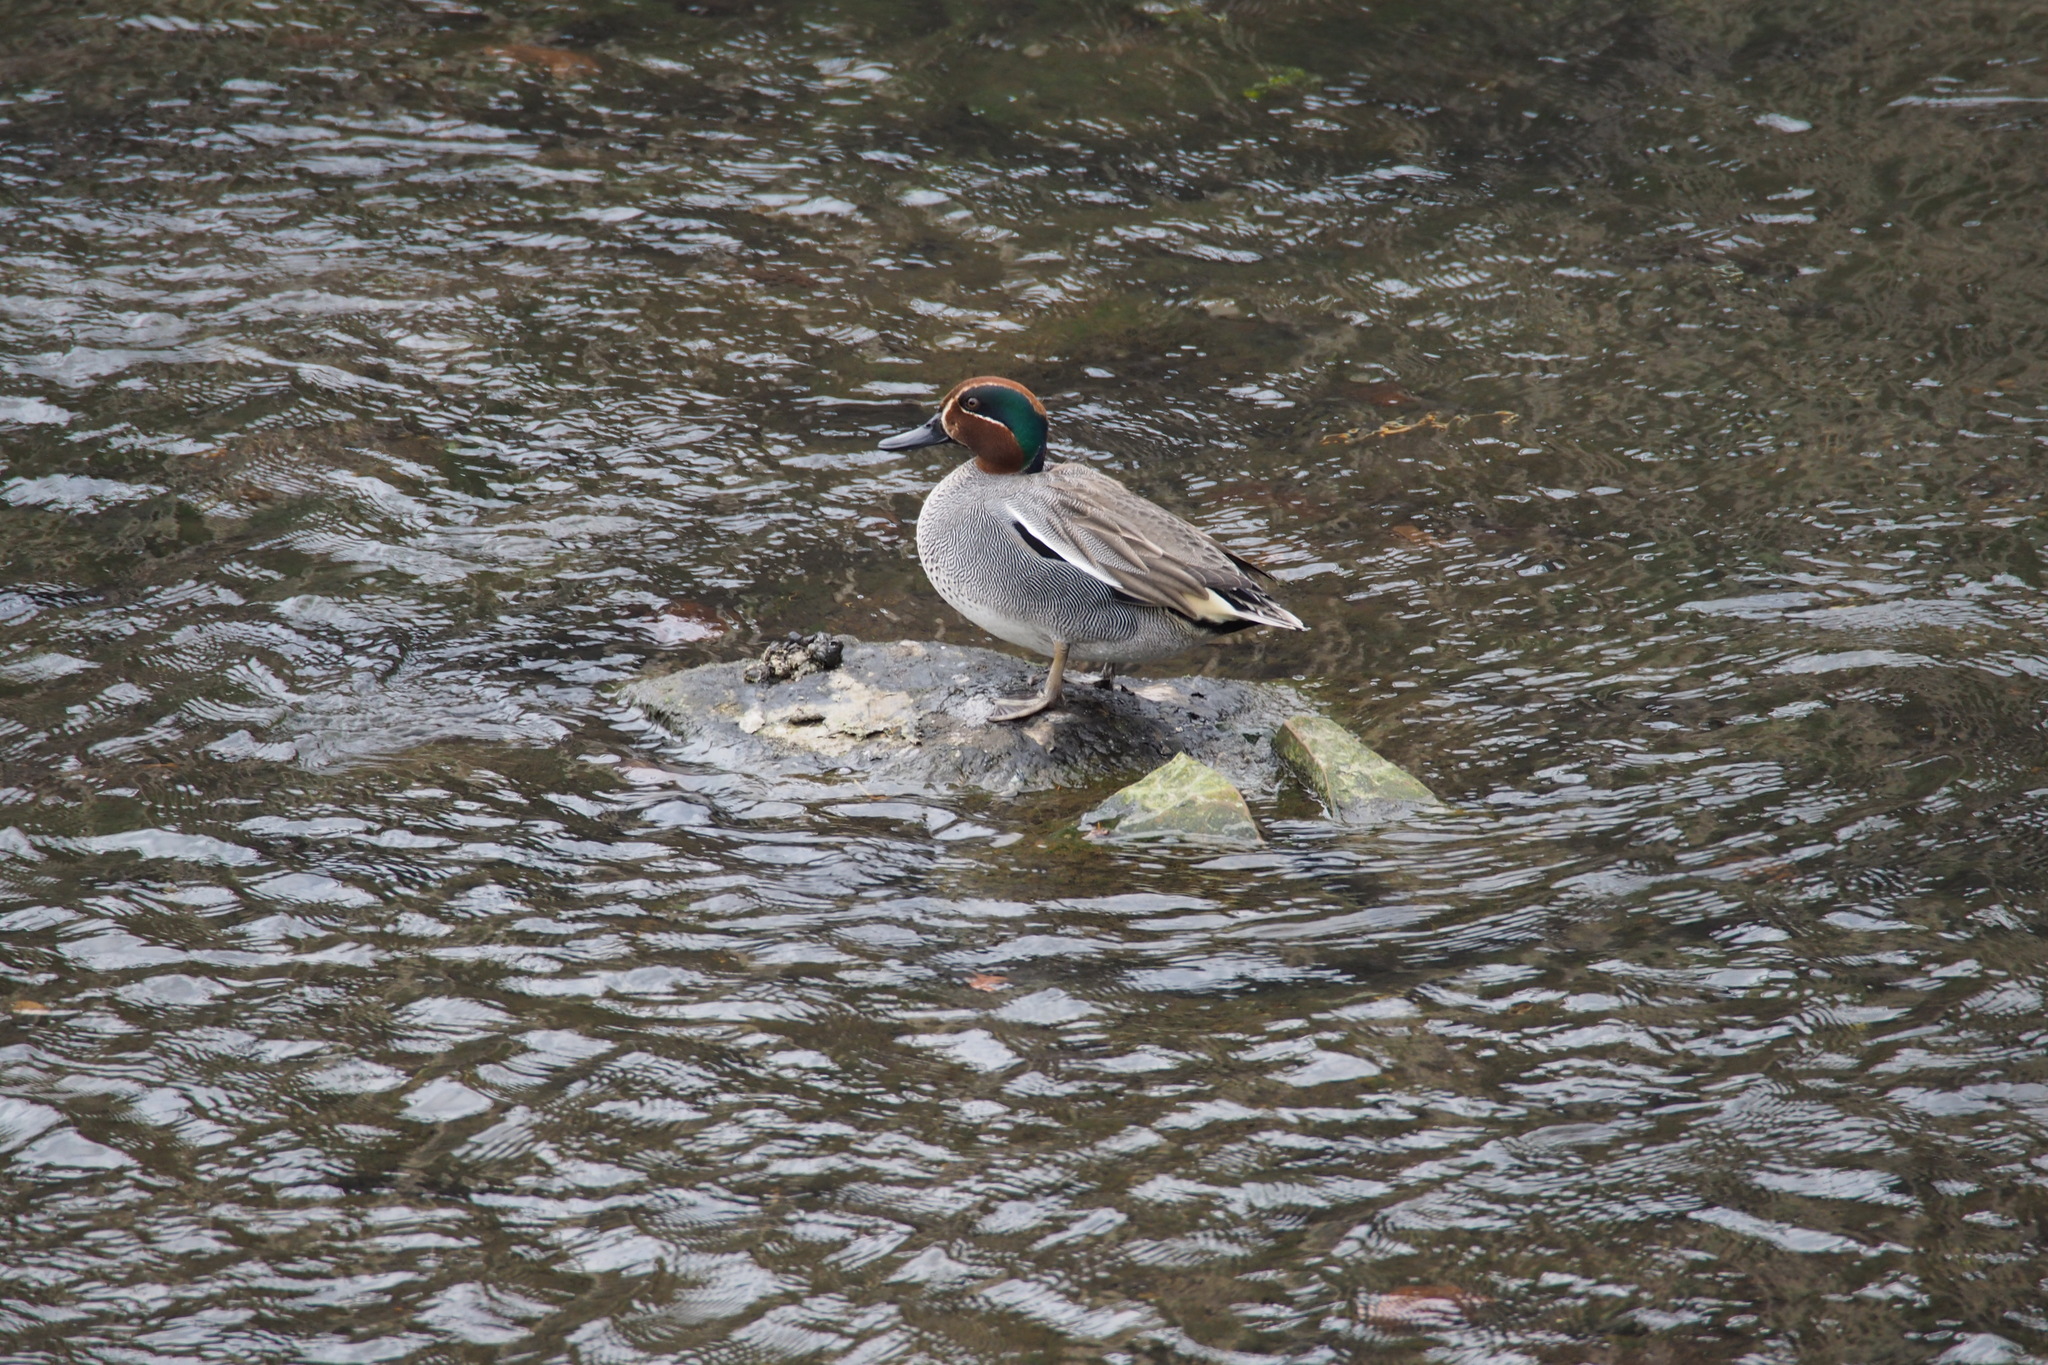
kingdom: Animalia
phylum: Chordata
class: Aves
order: Anseriformes
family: Anatidae
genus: Anas
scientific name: Anas crecca
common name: Eurasian teal
